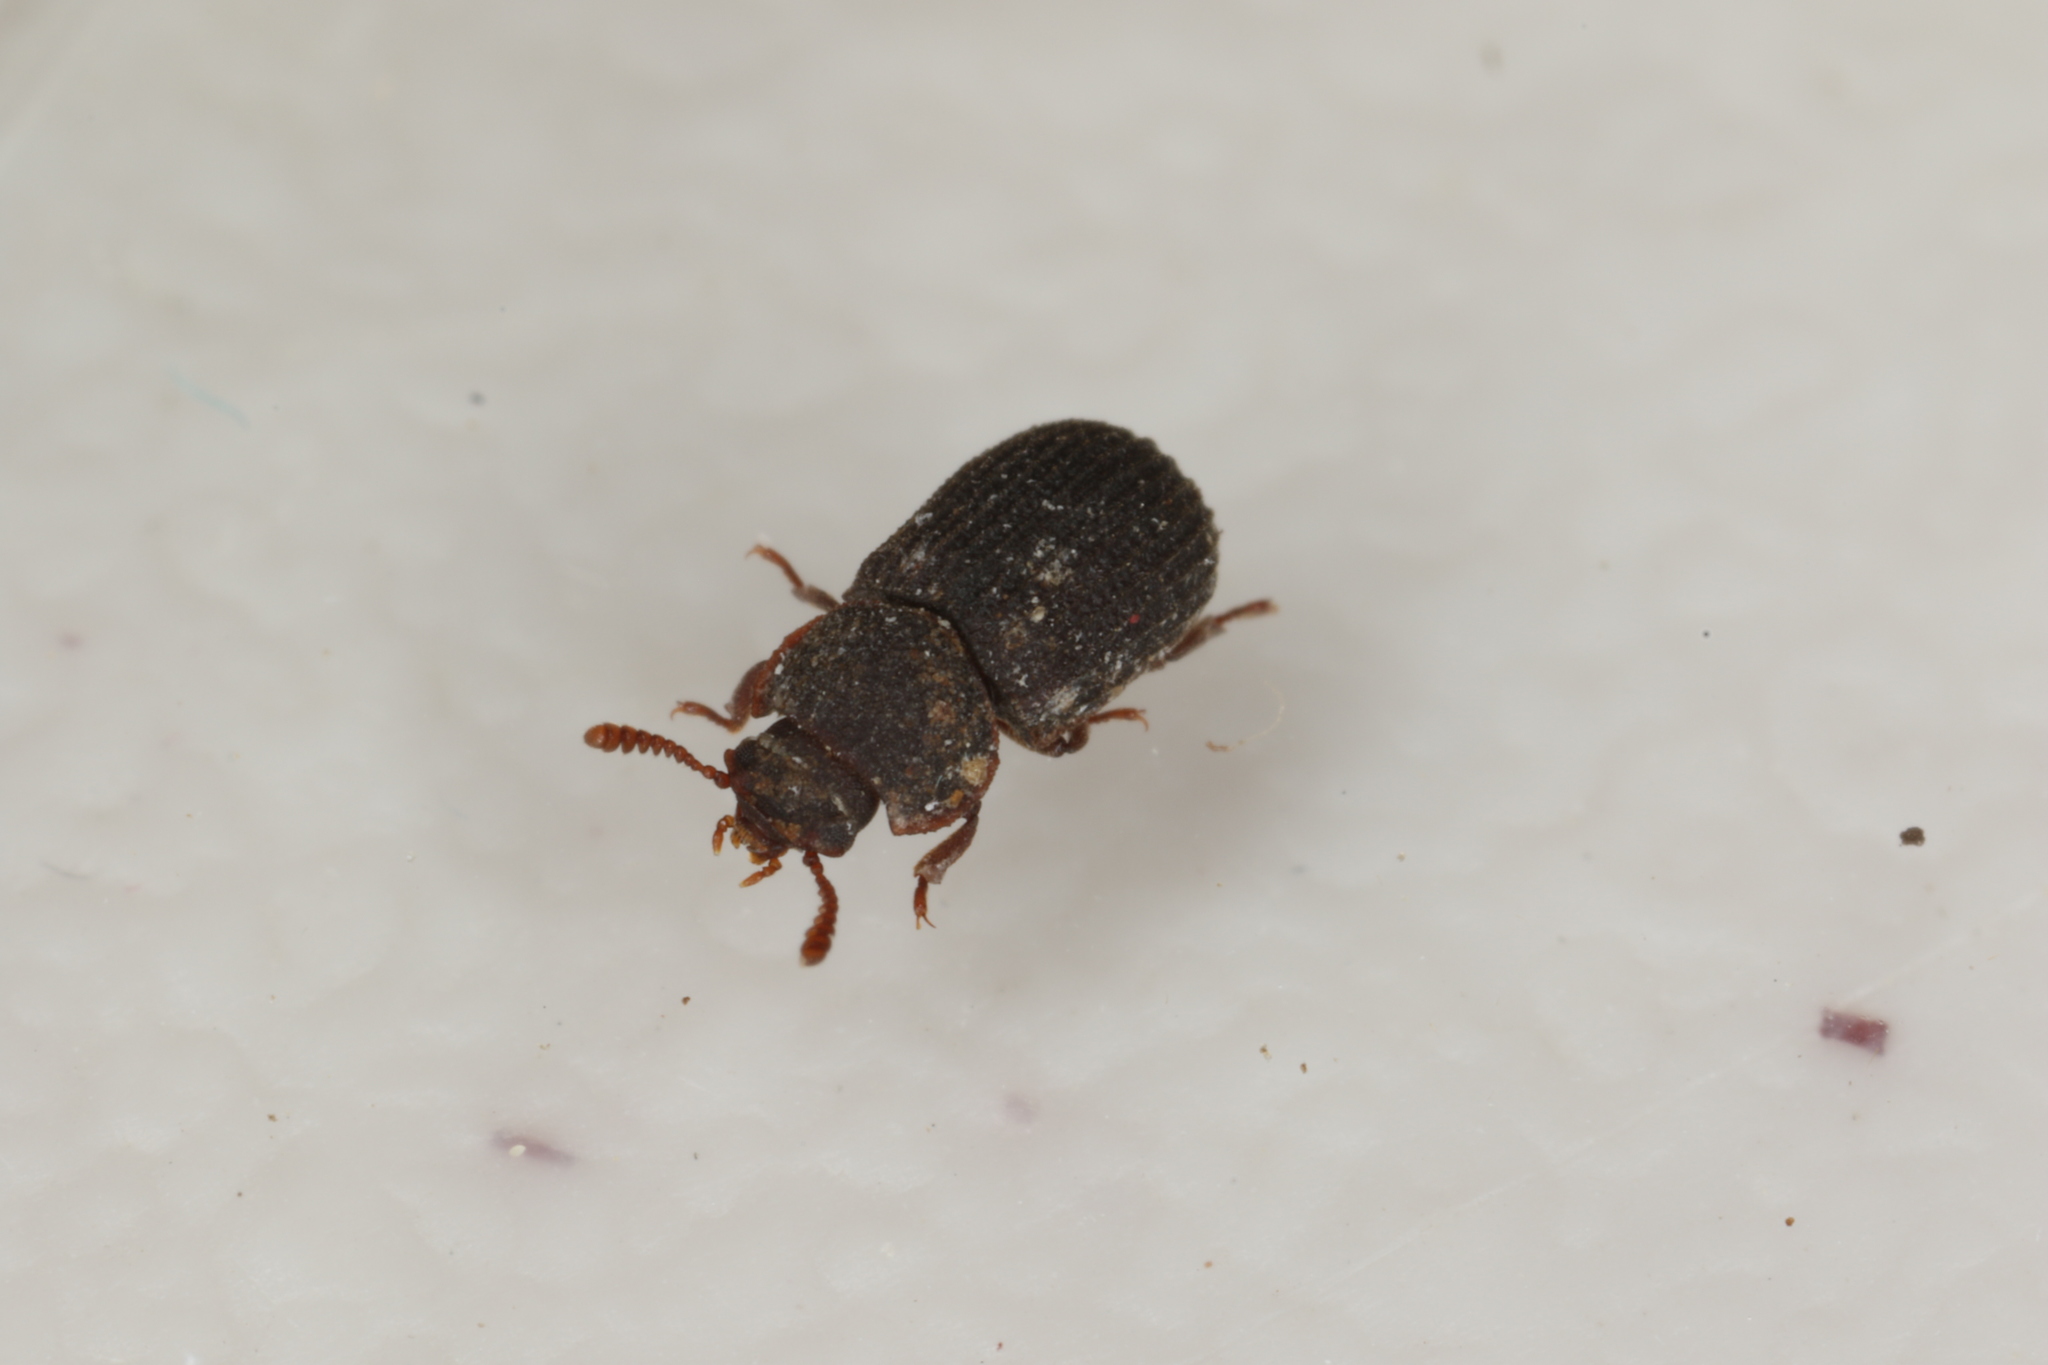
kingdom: Animalia
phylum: Arthropoda
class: Insecta
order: Coleoptera
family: Tenebrionidae
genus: Eledona
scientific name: Eledona agricola
